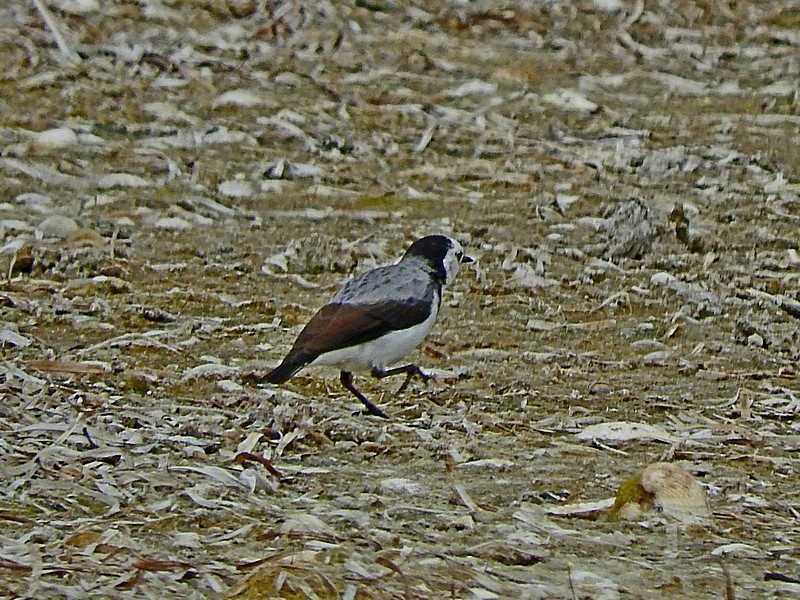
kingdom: Animalia
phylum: Chordata
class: Aves
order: Passeriformes
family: Meliphagidae
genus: Epthianura
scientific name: Epthianura albifrons
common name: White-fronted chat
